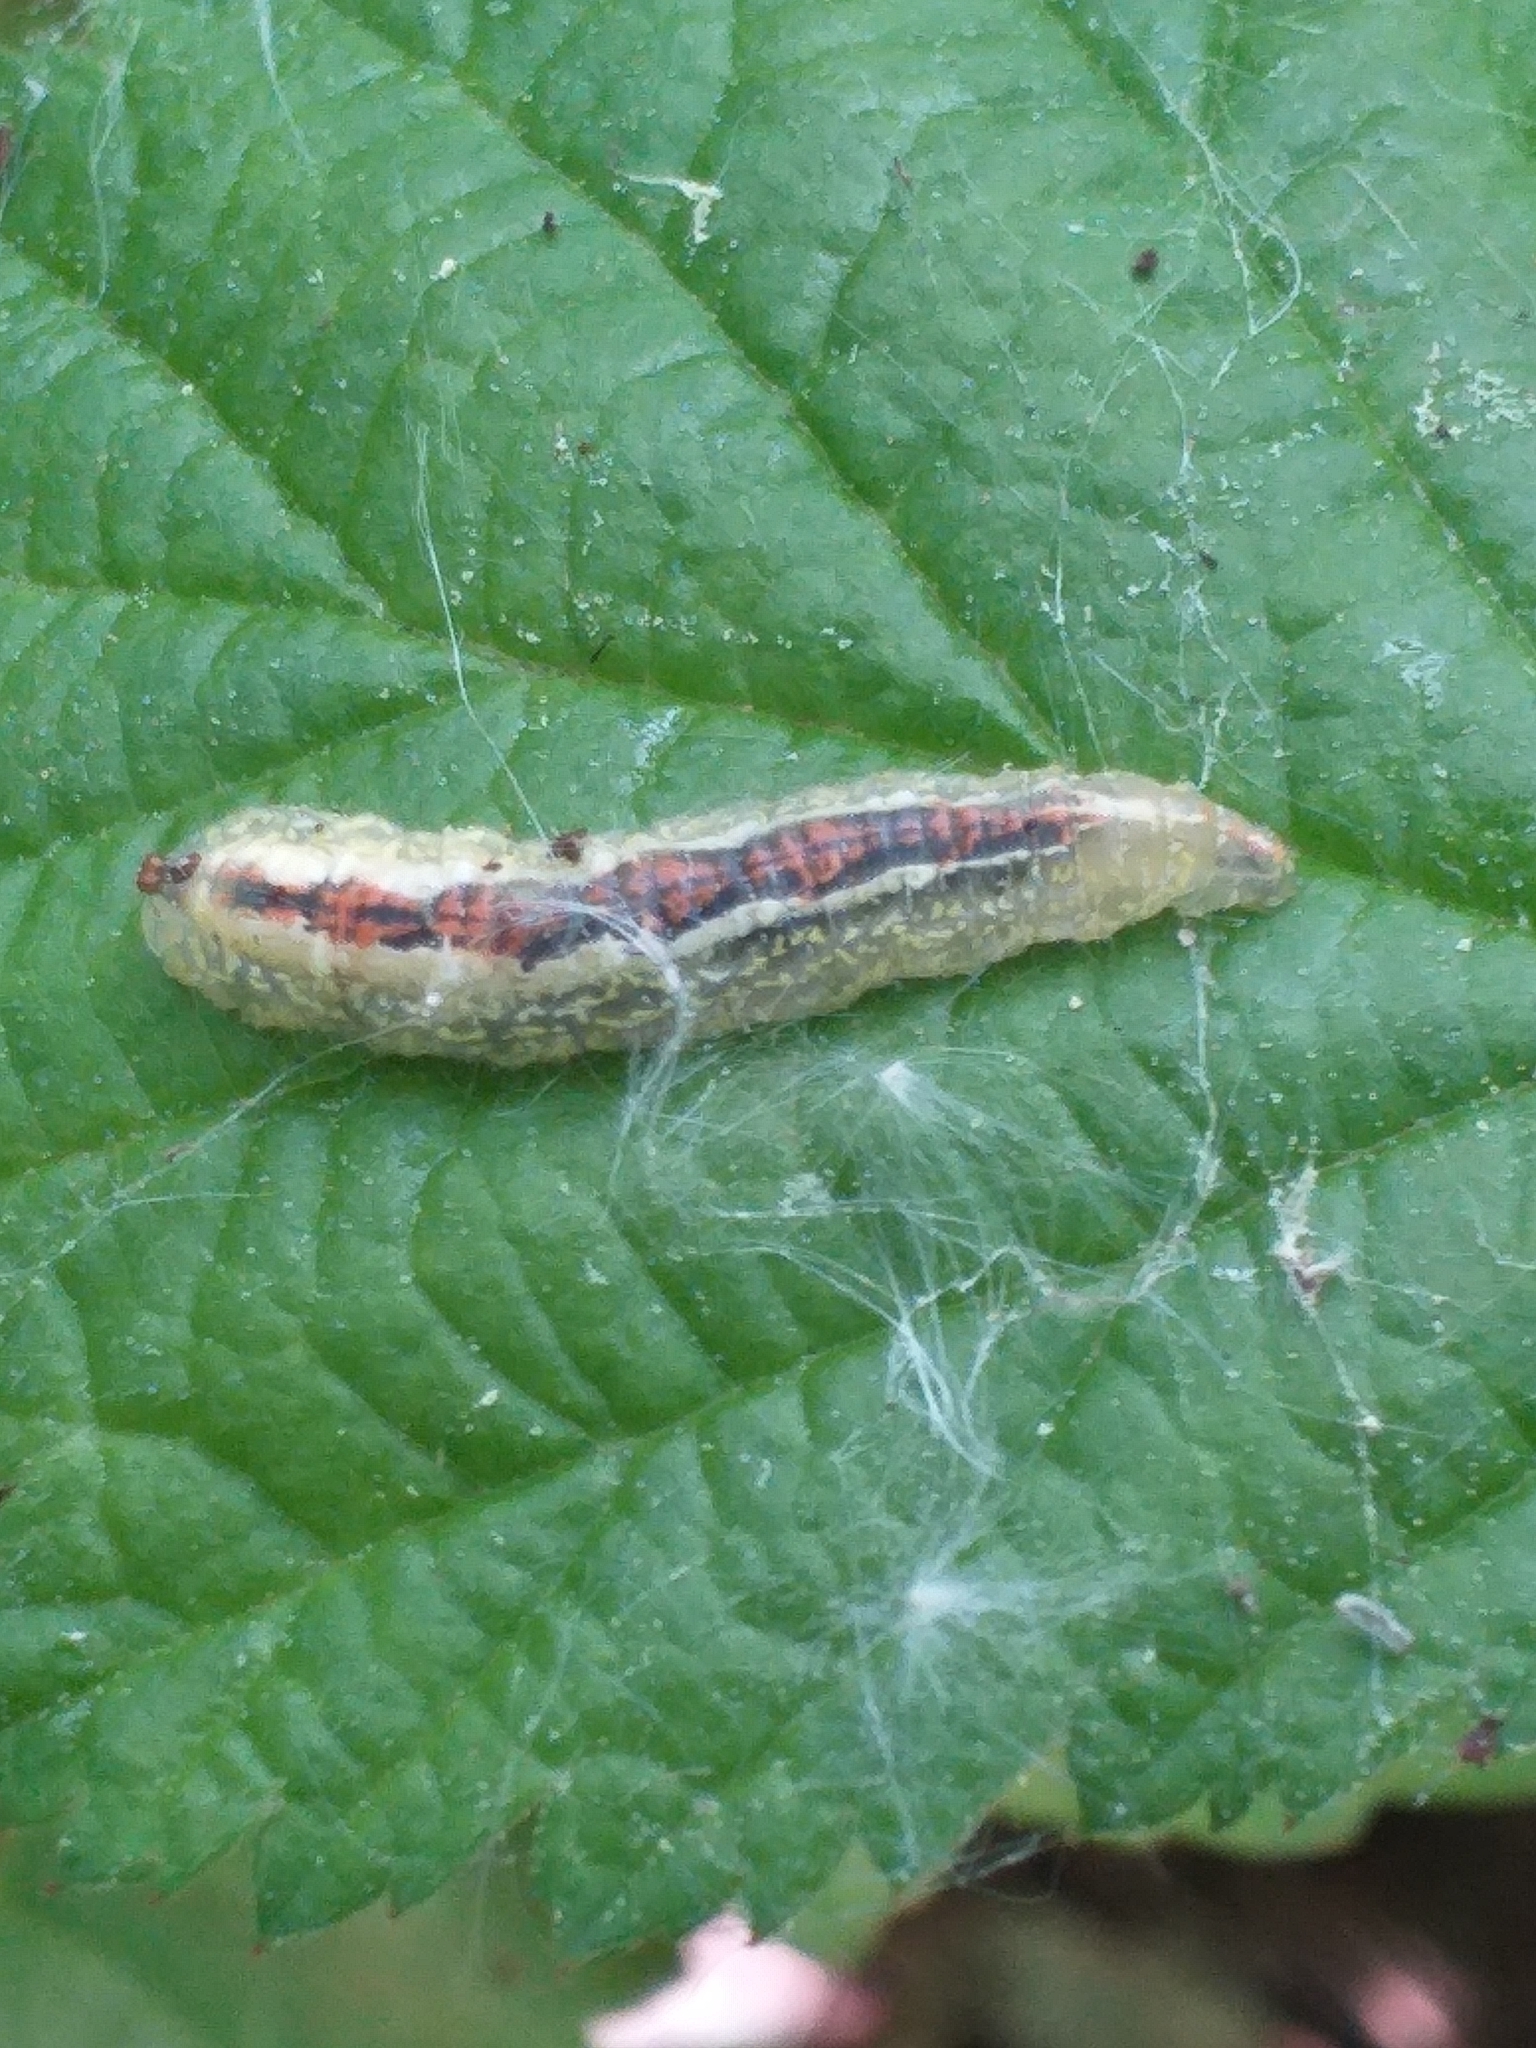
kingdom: Animalia
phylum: Arthropoda
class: Insecta
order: Diptera
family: Syrphidae
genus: Syrphus
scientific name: Syrphus
